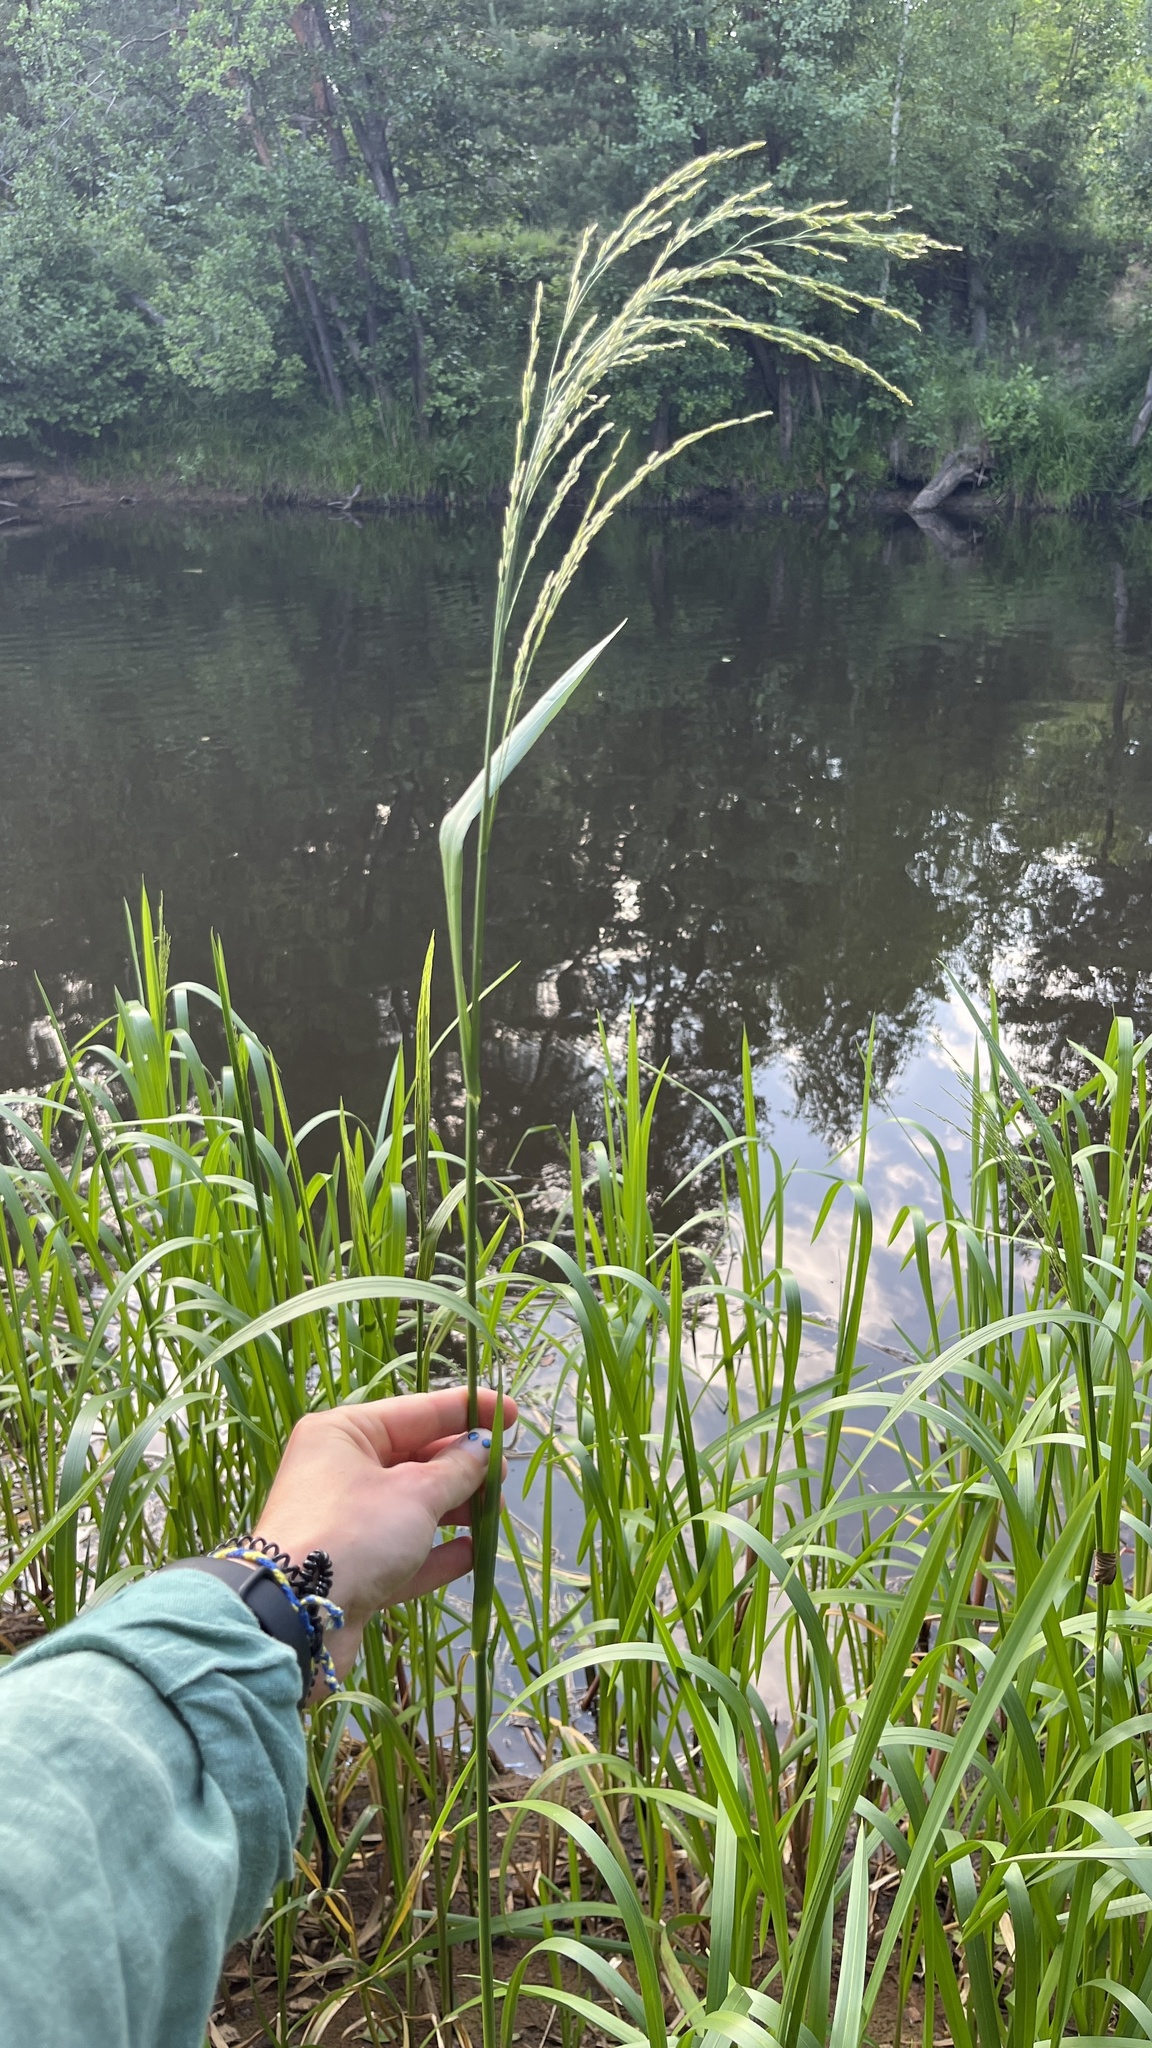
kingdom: Plantae
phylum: Tracheophyta
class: Liliopsida
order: Poales
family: Poaceae
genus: Glyceria
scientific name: Glyceria maxima
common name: Reed mannagrass
